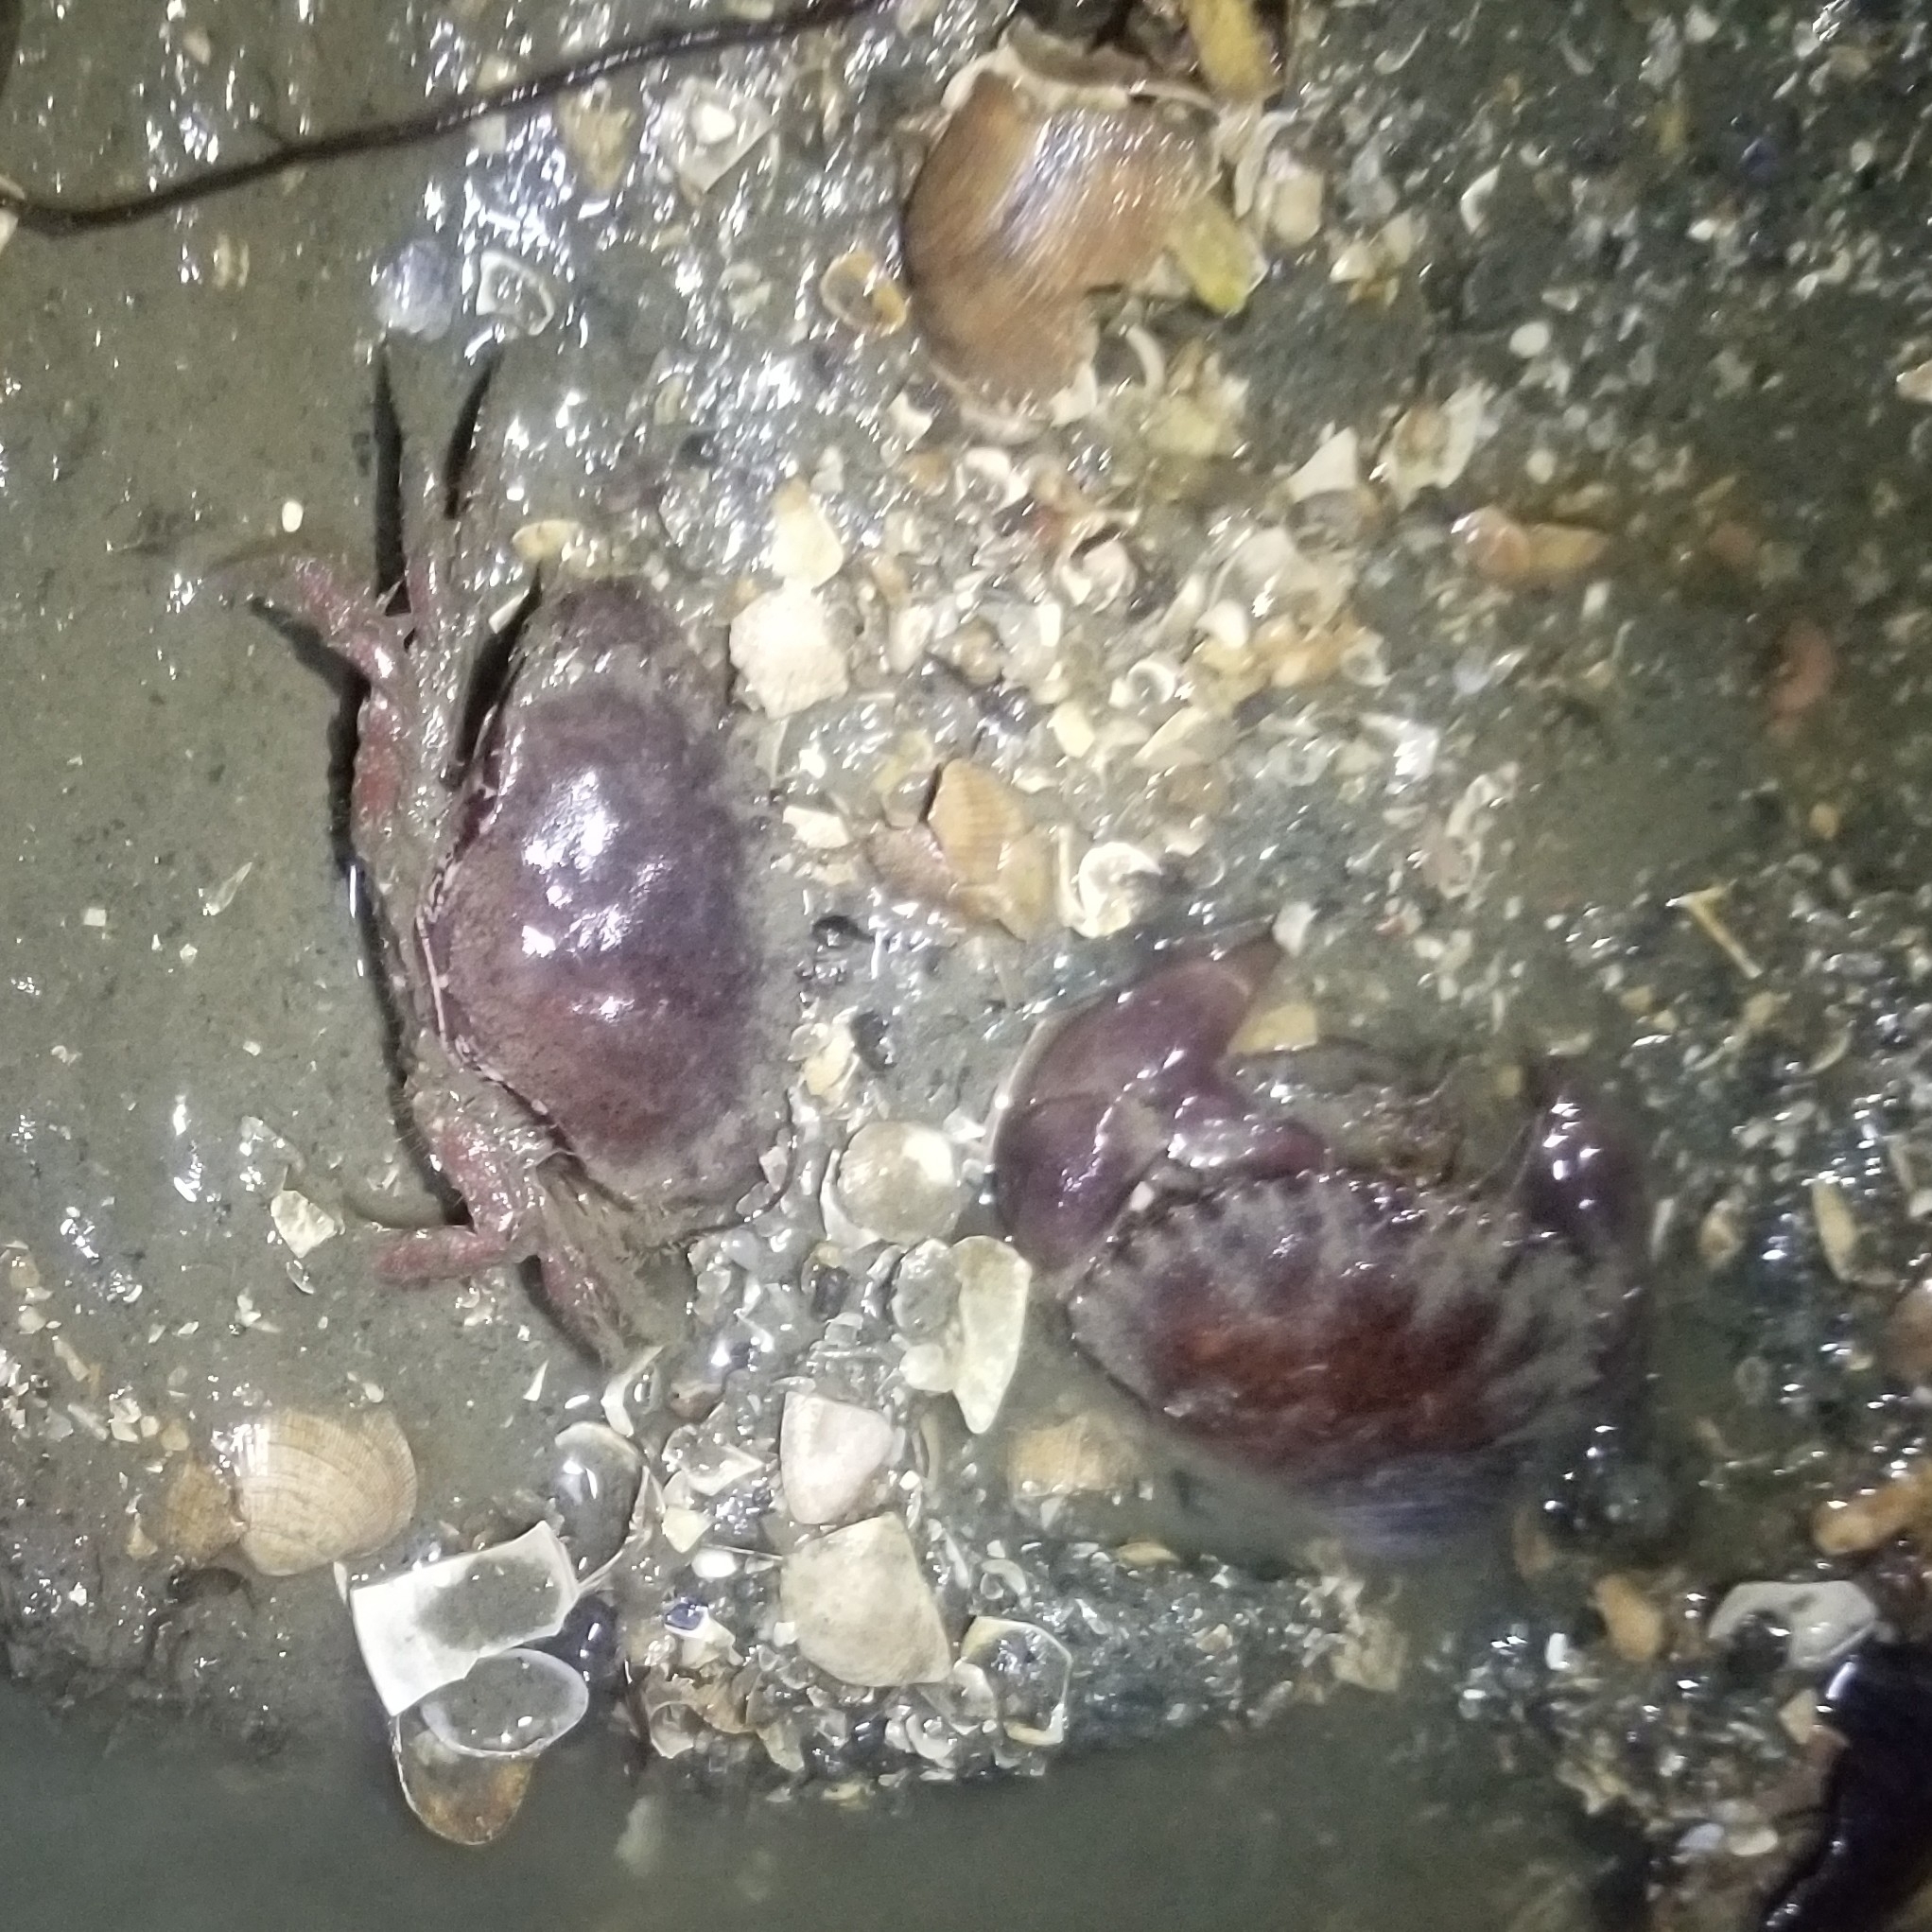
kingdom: Animalia
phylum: Arthropoda
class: Malacostraca
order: Decapoda
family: Cancridae
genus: Romaleon
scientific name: Romaleon antennarium
